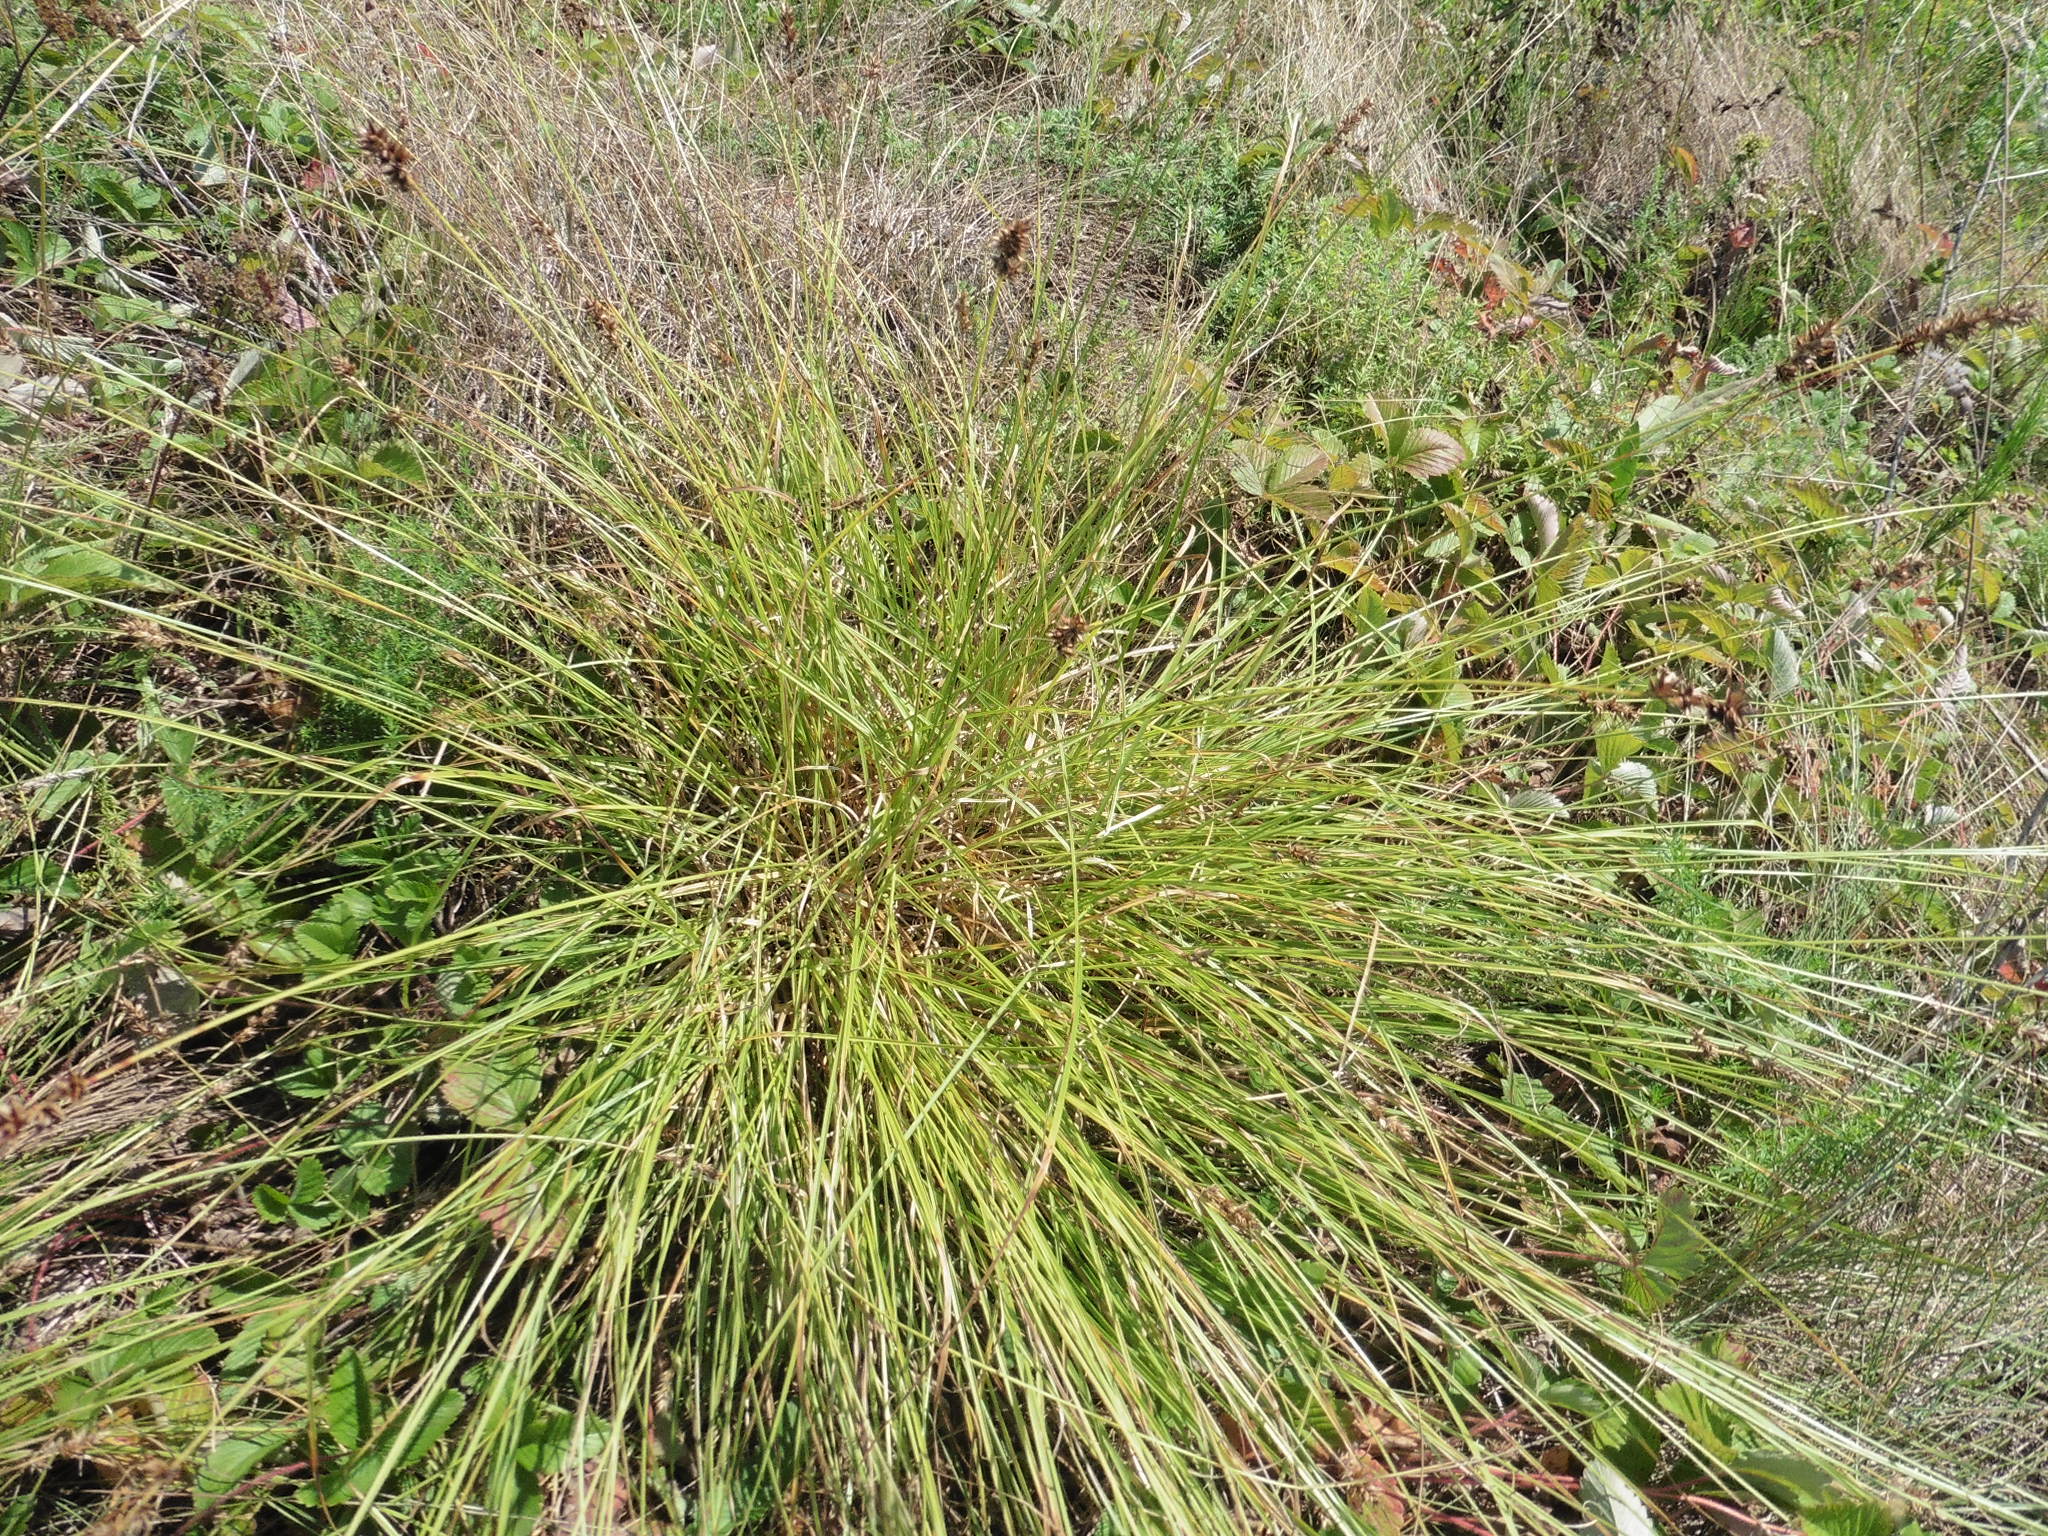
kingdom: Plantae
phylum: Tracheophyta
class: Liliopsida
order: Poales
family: Cyperaceae
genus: Carex
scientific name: Carex spicata
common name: Spiked sedge
